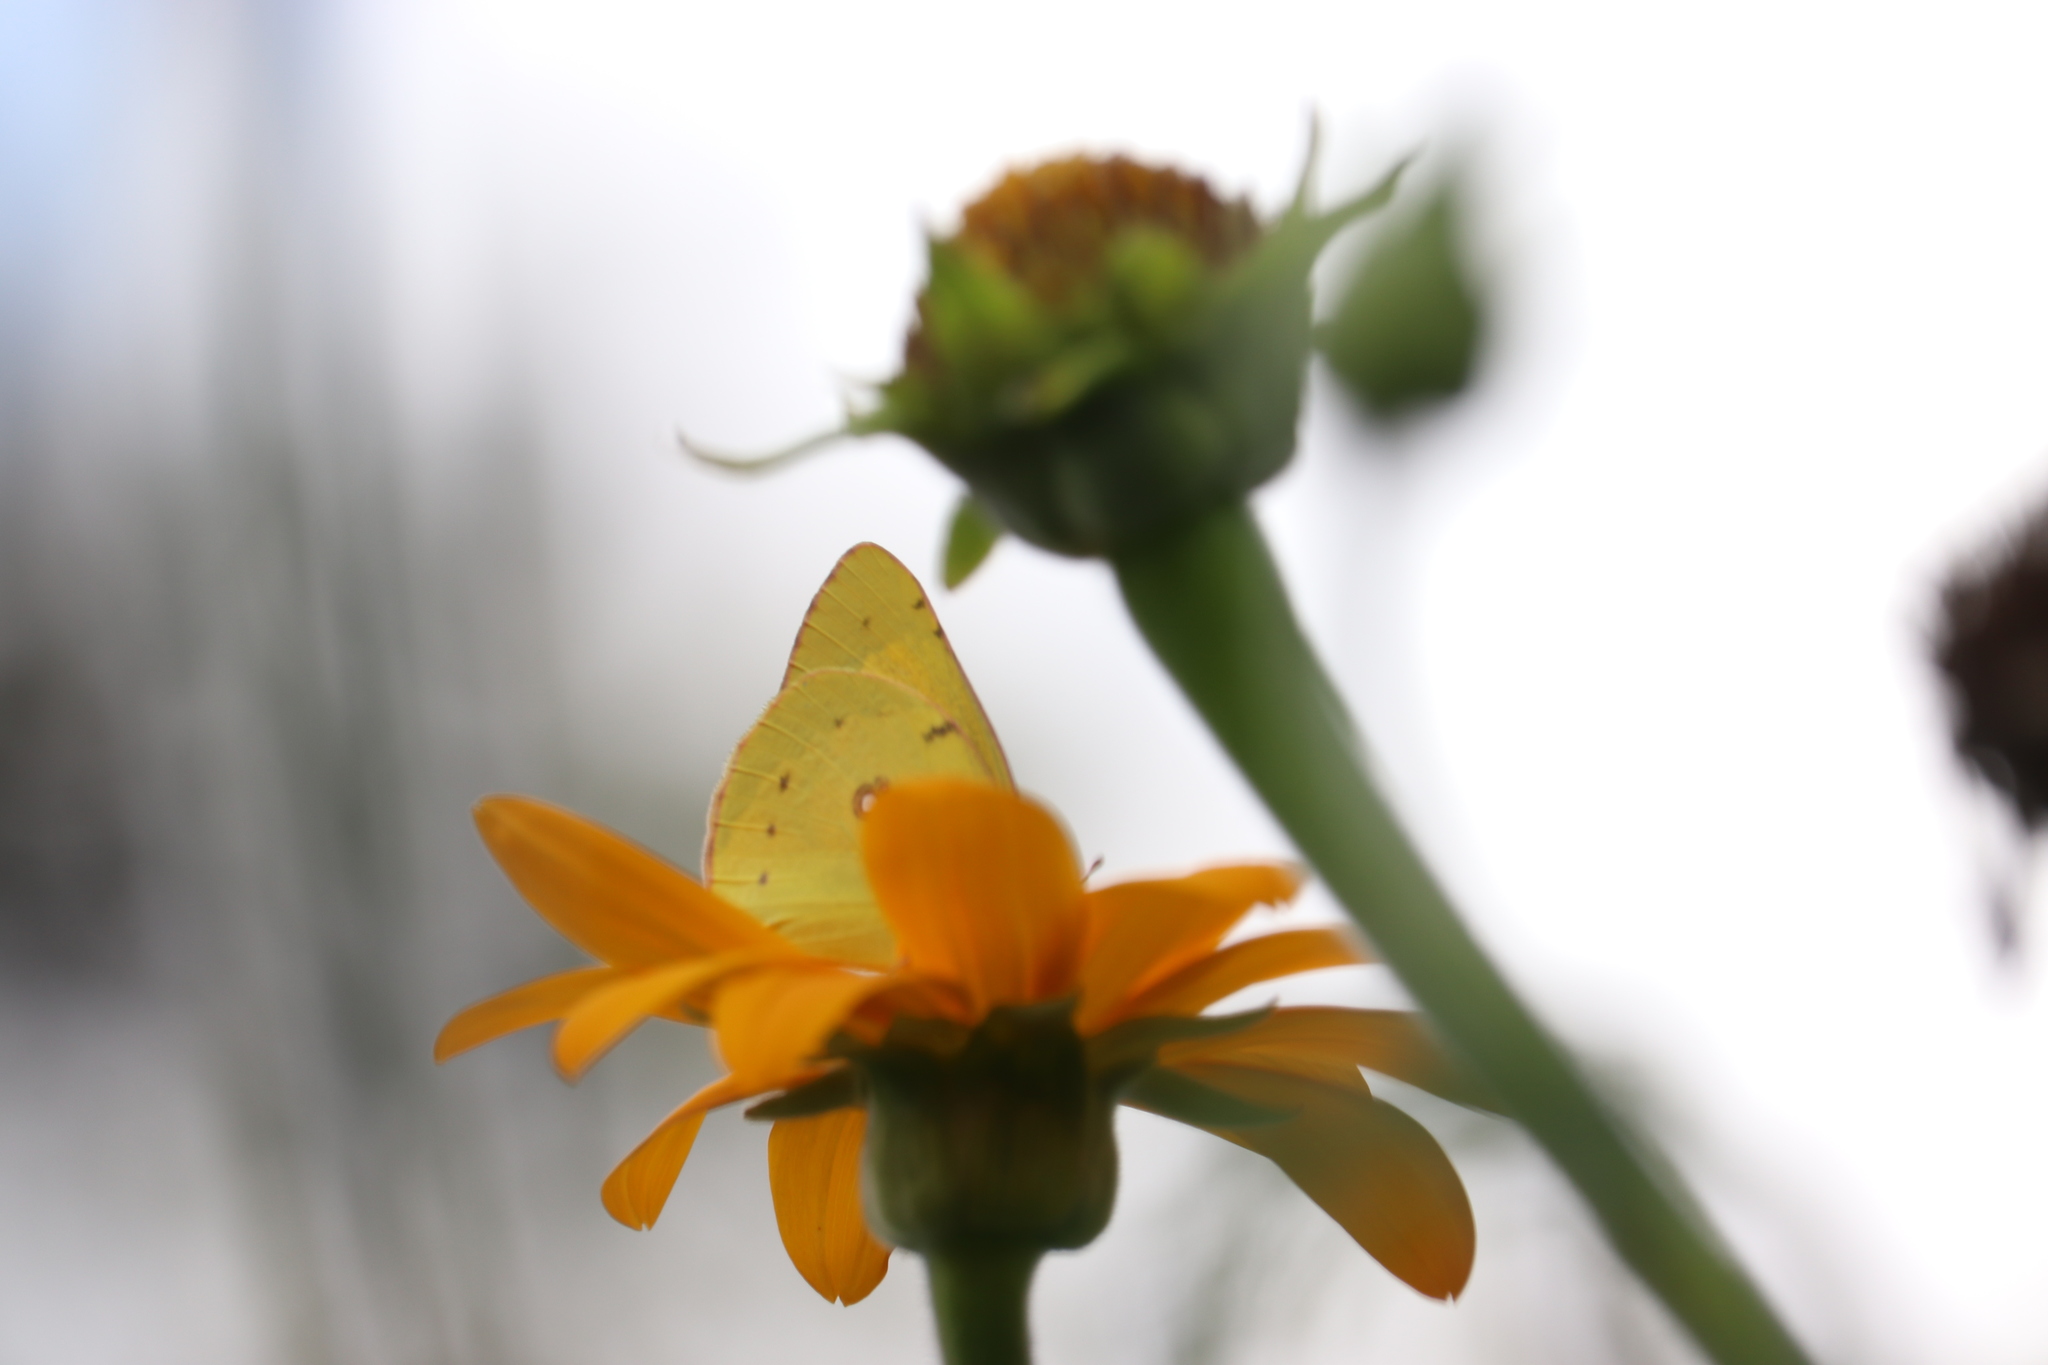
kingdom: Animalia
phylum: Arthropoda
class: Insecta
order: Lepidoptera
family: Pieridae
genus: Colias
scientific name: Colias eurytheme
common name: Alfalfa butterfly
